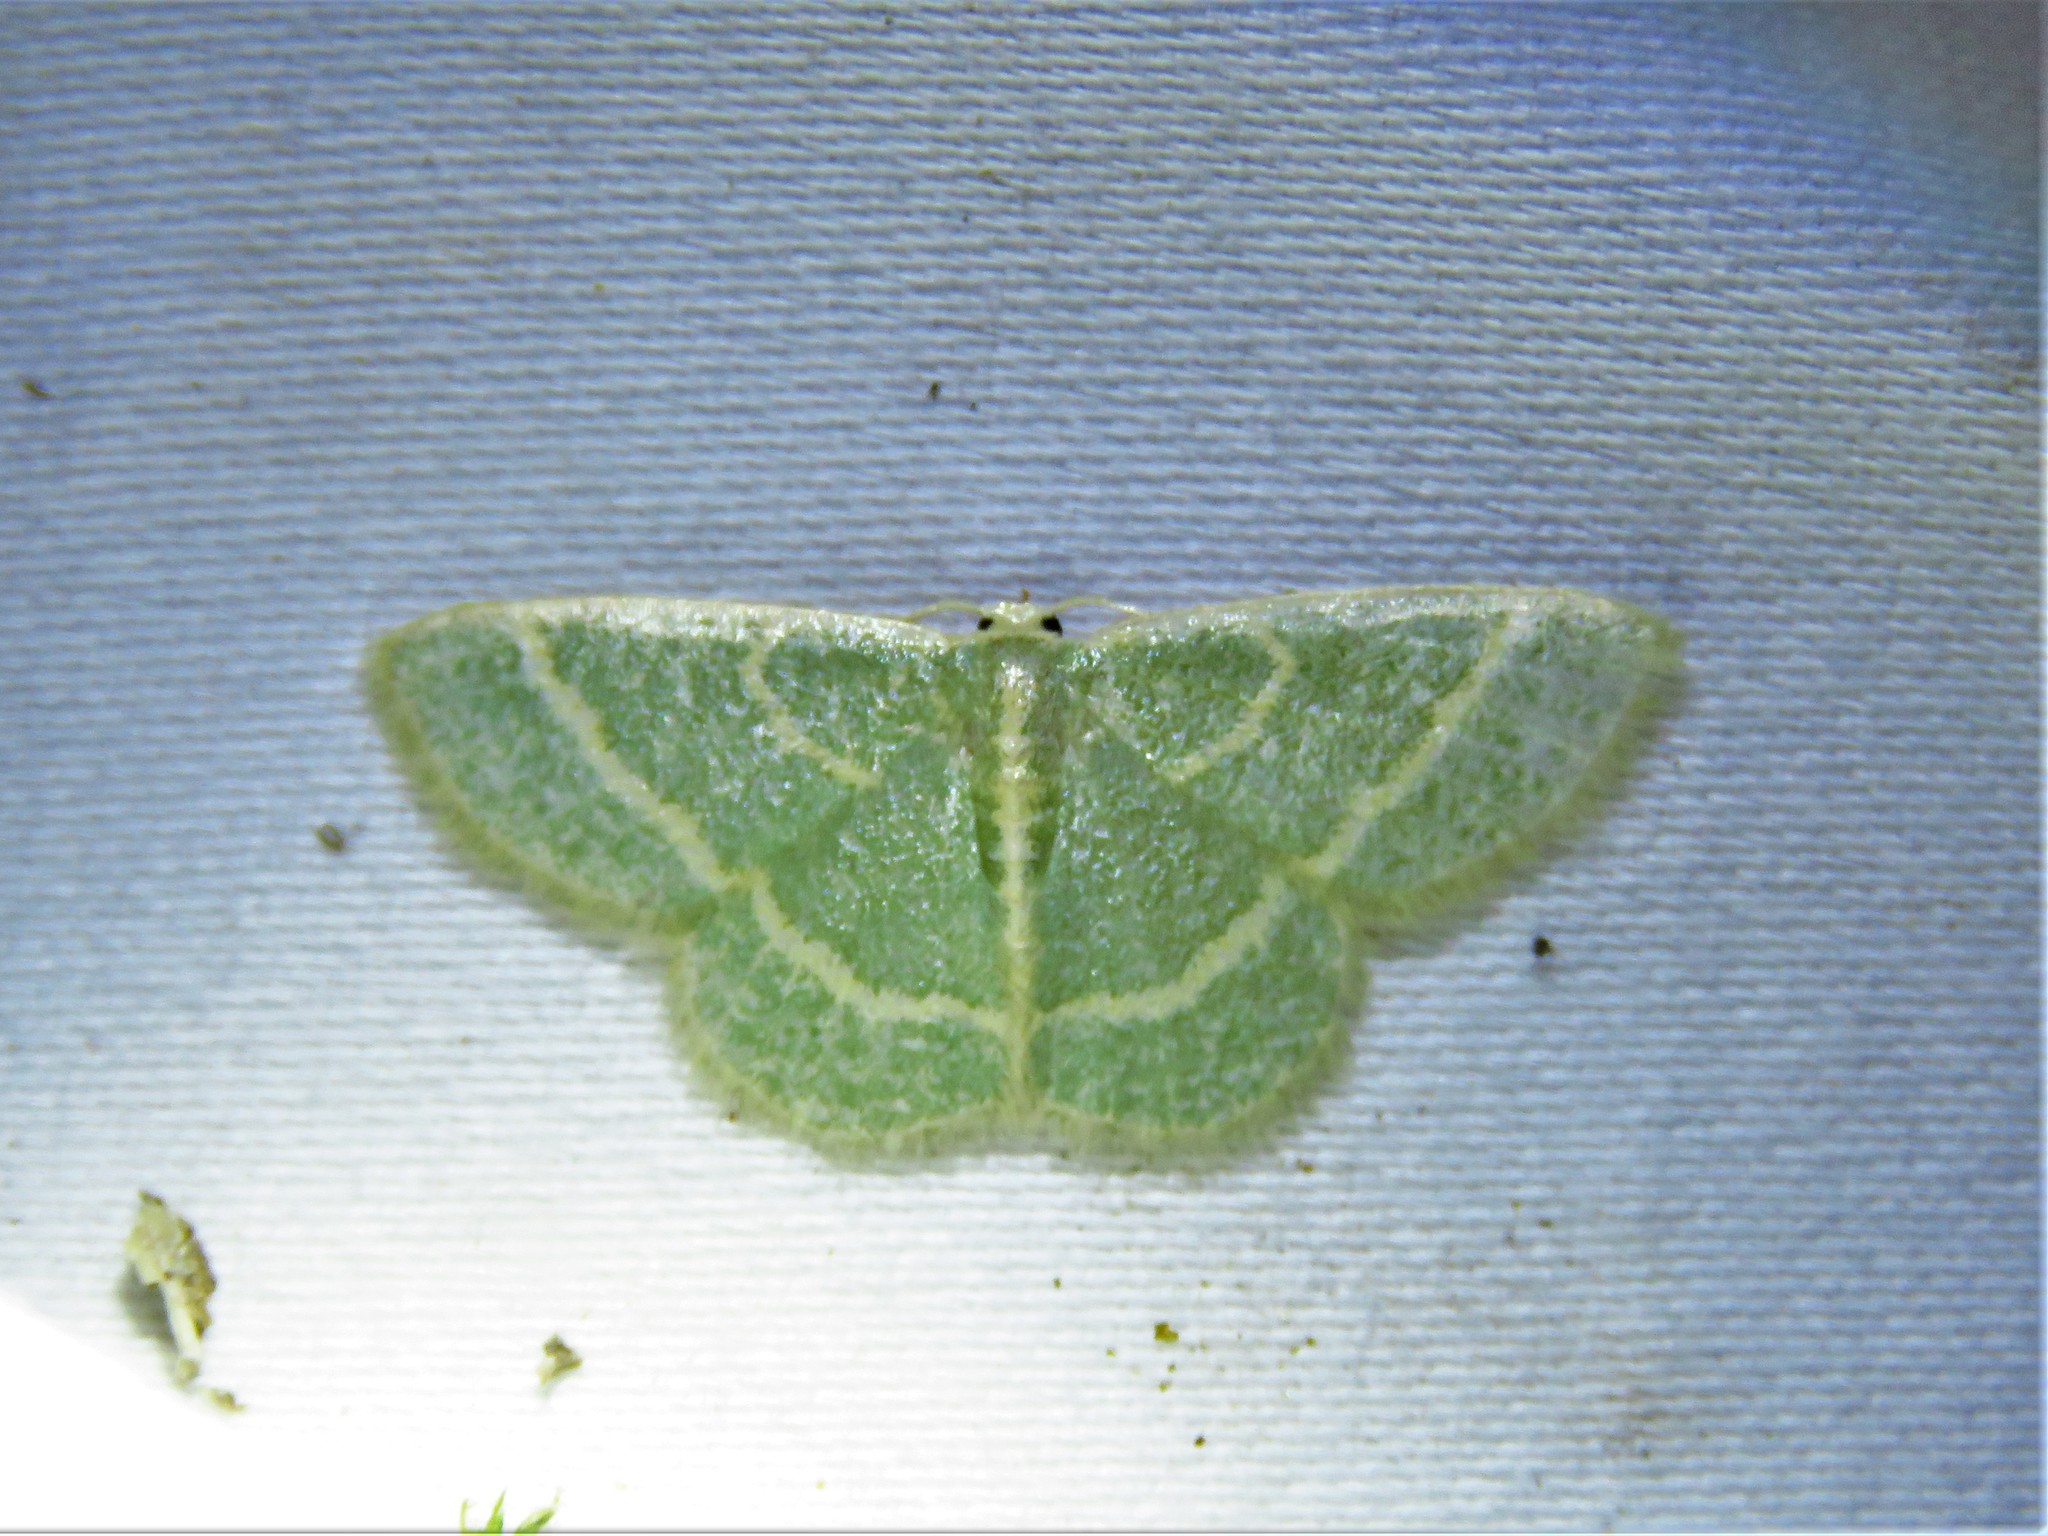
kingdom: Animalia
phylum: Arthropoda
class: Insecta
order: Lepidoptera
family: Geometridae
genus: Chlorochlamys
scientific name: Chlorochlamys chloroleucaria
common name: Blackberry looper
